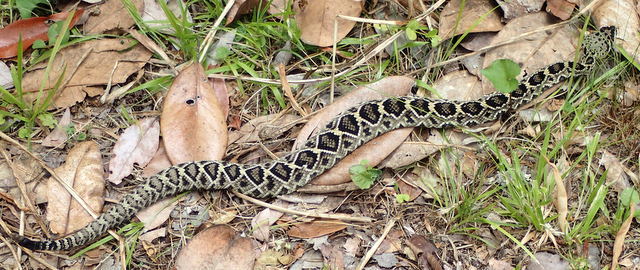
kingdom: Animalia
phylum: Chordata
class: Squamata
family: Viperidae
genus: Crotalus
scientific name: Crotalus adamanteus
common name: Eastern diamondback rattlesnake
